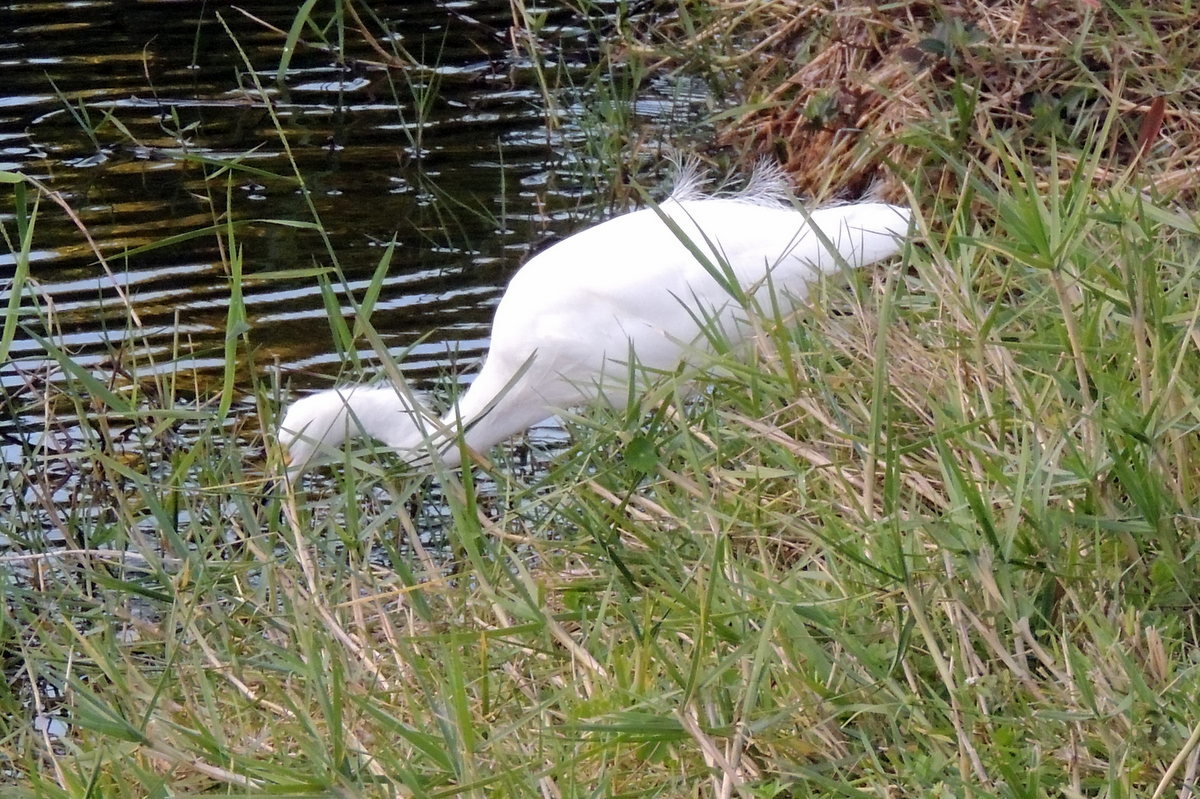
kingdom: Animalia
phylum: Chordata
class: Aves
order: Pelecaniformes
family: Ardeidae
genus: Egretta
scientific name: Egretta thula
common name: Snowy egret
